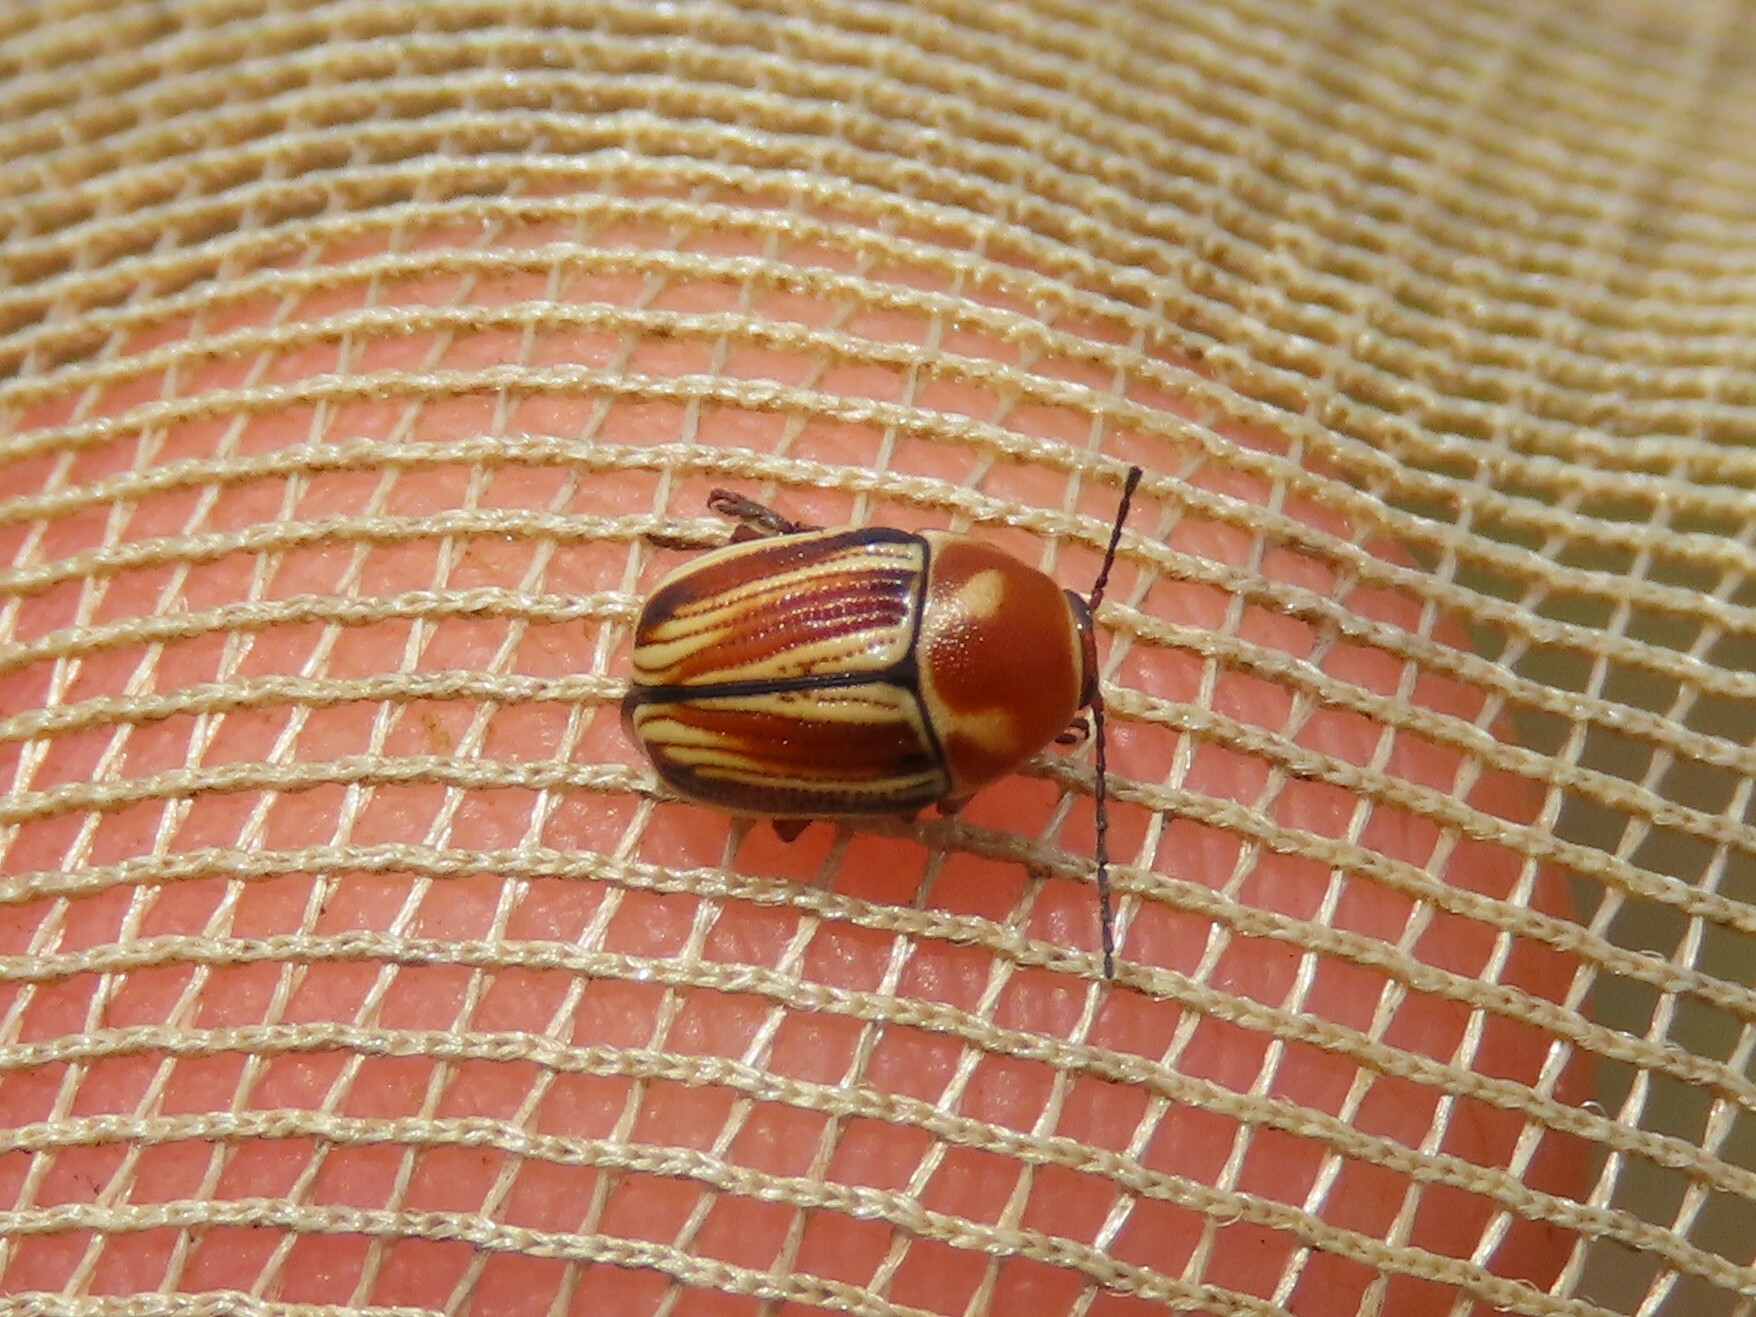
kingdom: Animalia
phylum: Arthropoda
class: Insecta
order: Coleoptera
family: Chrysomelidae
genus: Cryptocephalus
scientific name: Cryptocephalus obsoletus
